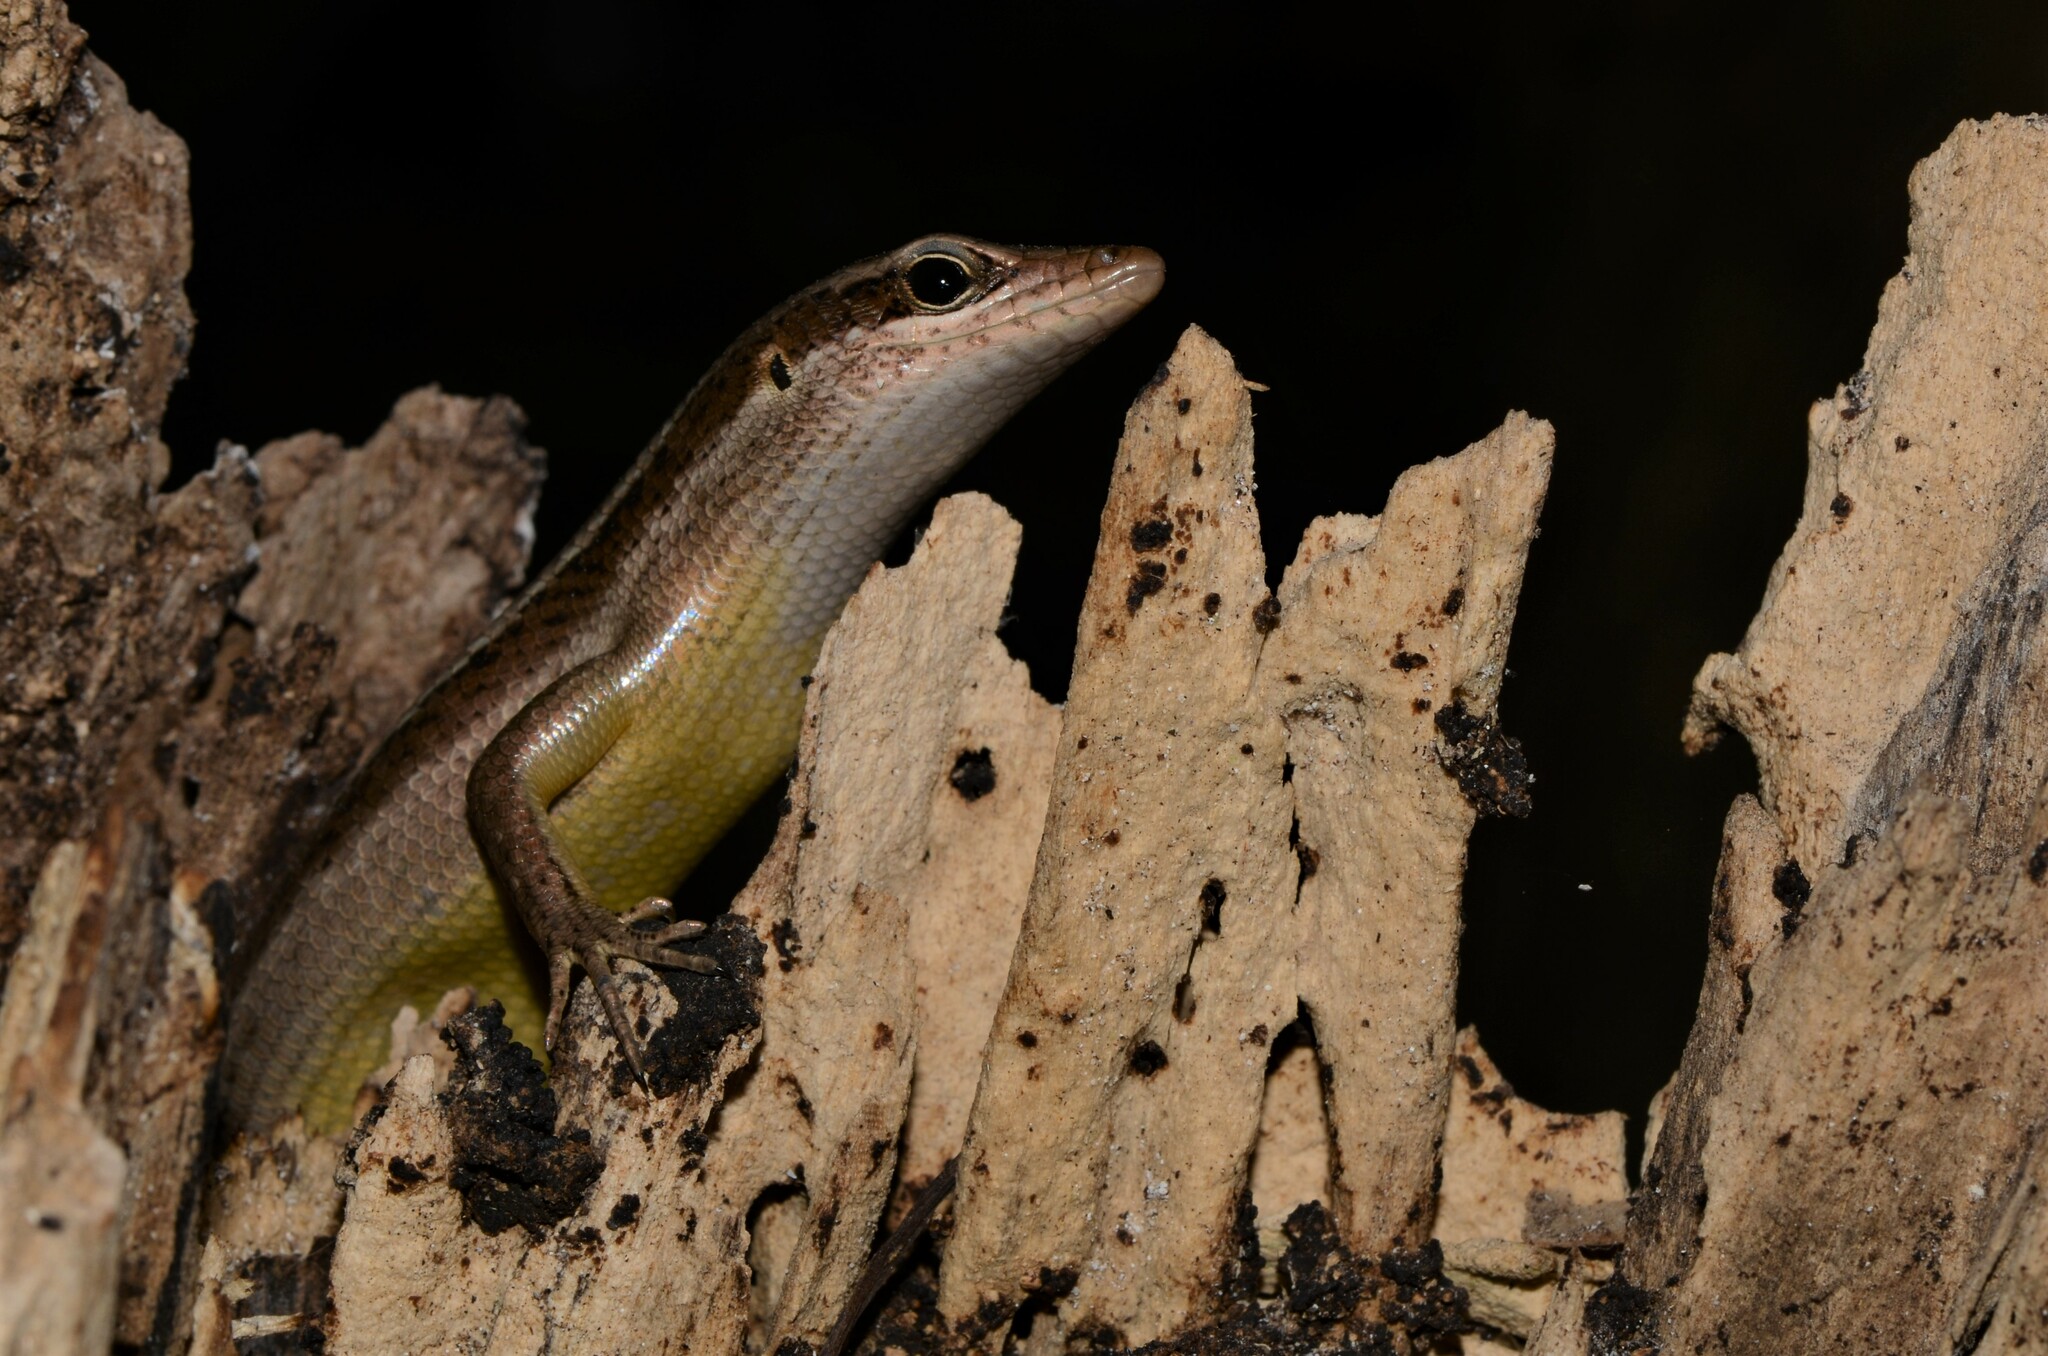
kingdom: Animalia
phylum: Chordata
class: Squamata
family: Scincidae
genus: Trachylepis
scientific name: Trachylepis sechellensis
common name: Seychelles skink
